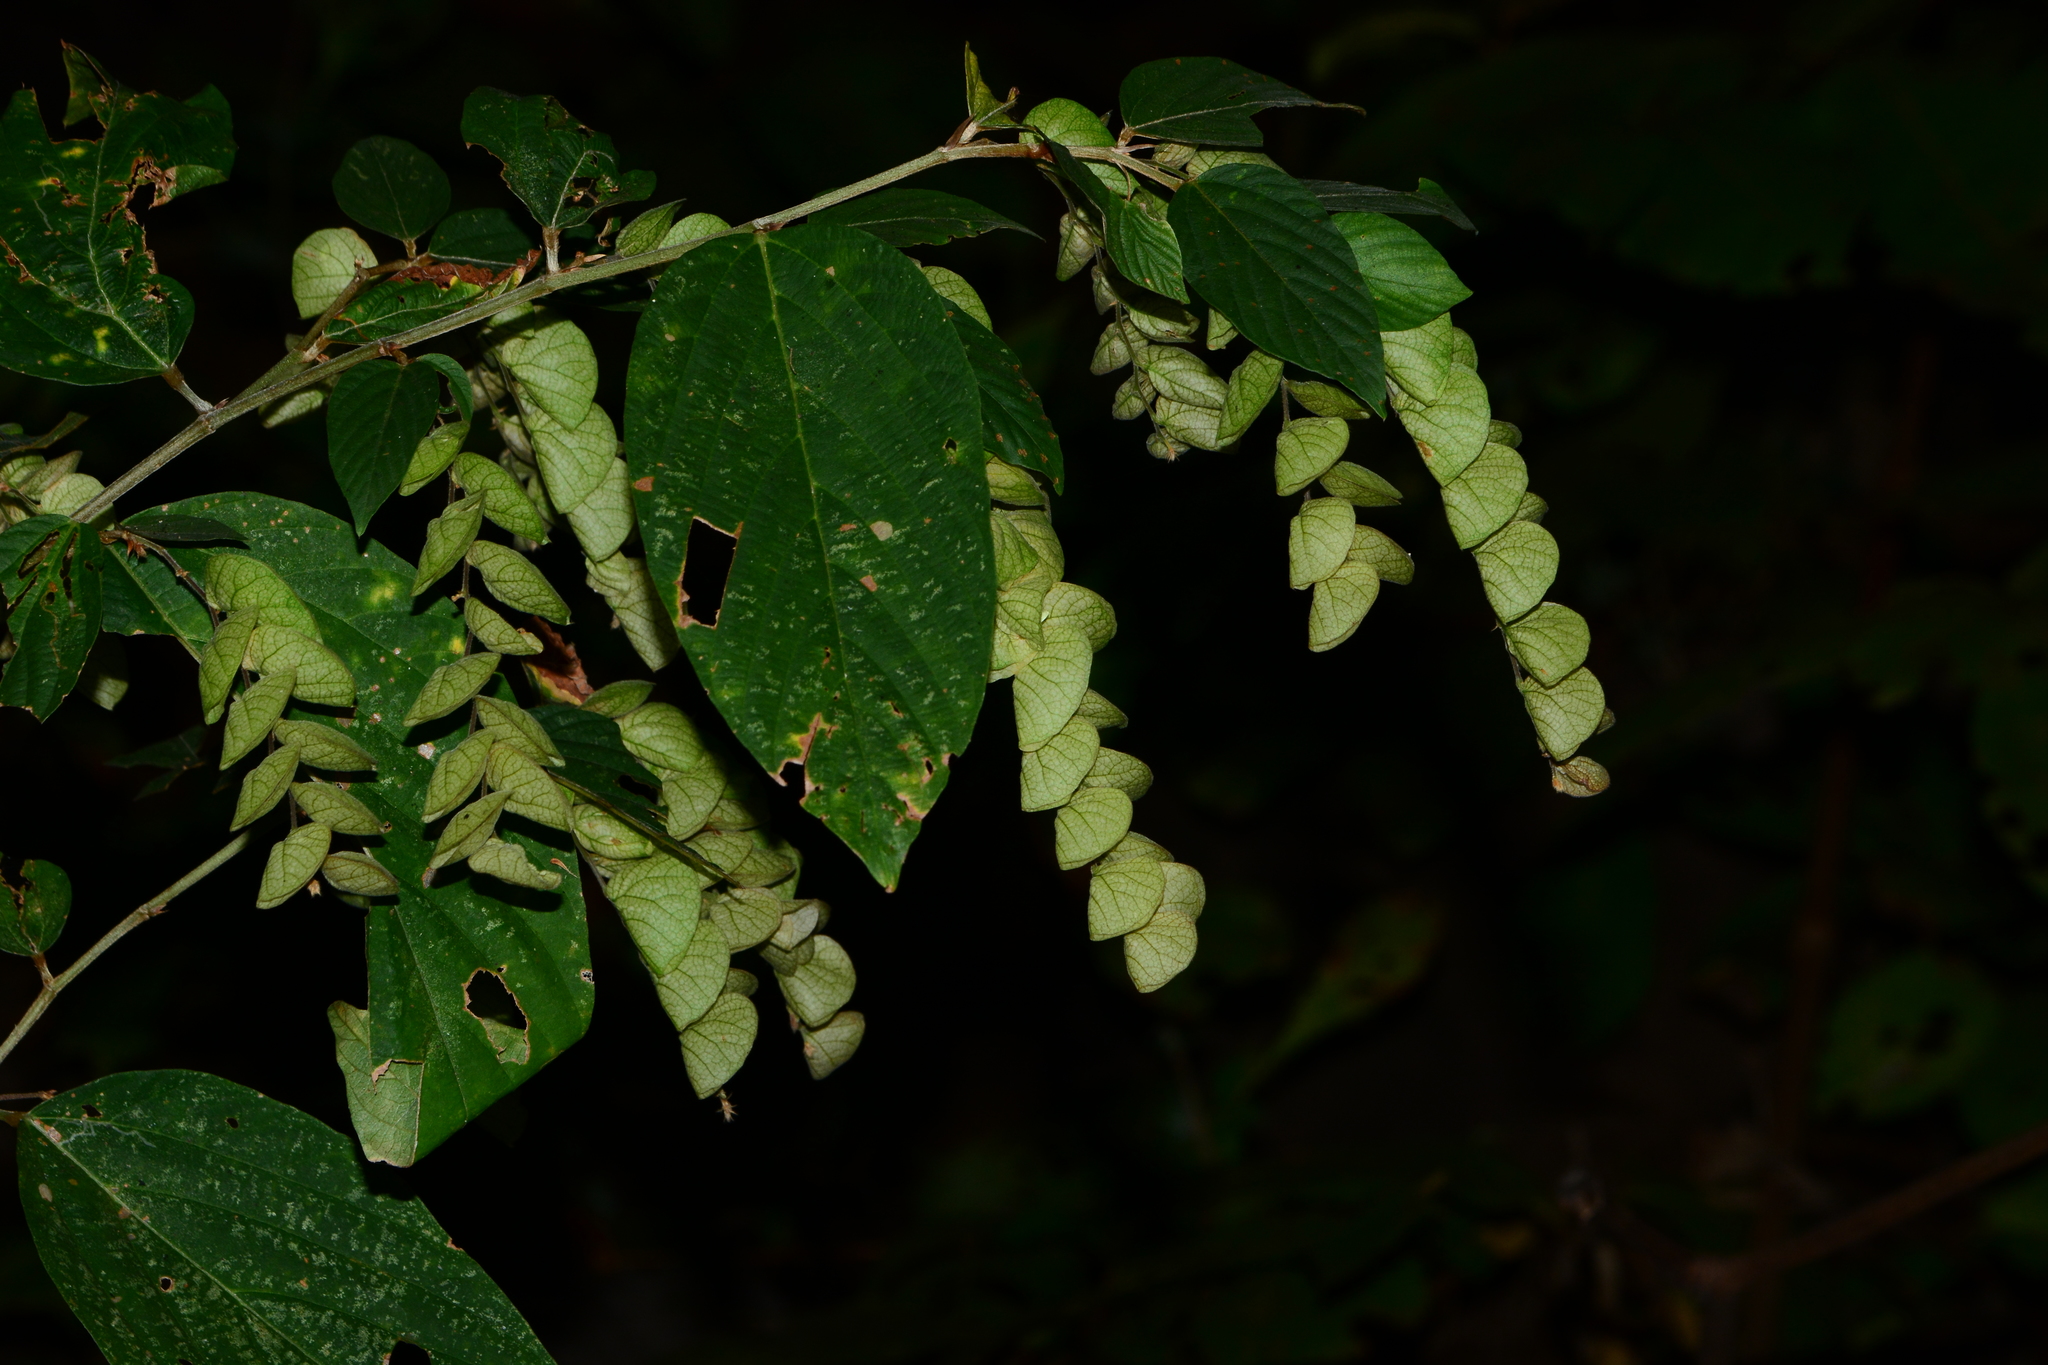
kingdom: Plantae
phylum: Tracheophyta
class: Magnoliopsida
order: Fabales
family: Fabaceae
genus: Flemingia
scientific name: Flemingia strobilifera
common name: Wild hops
